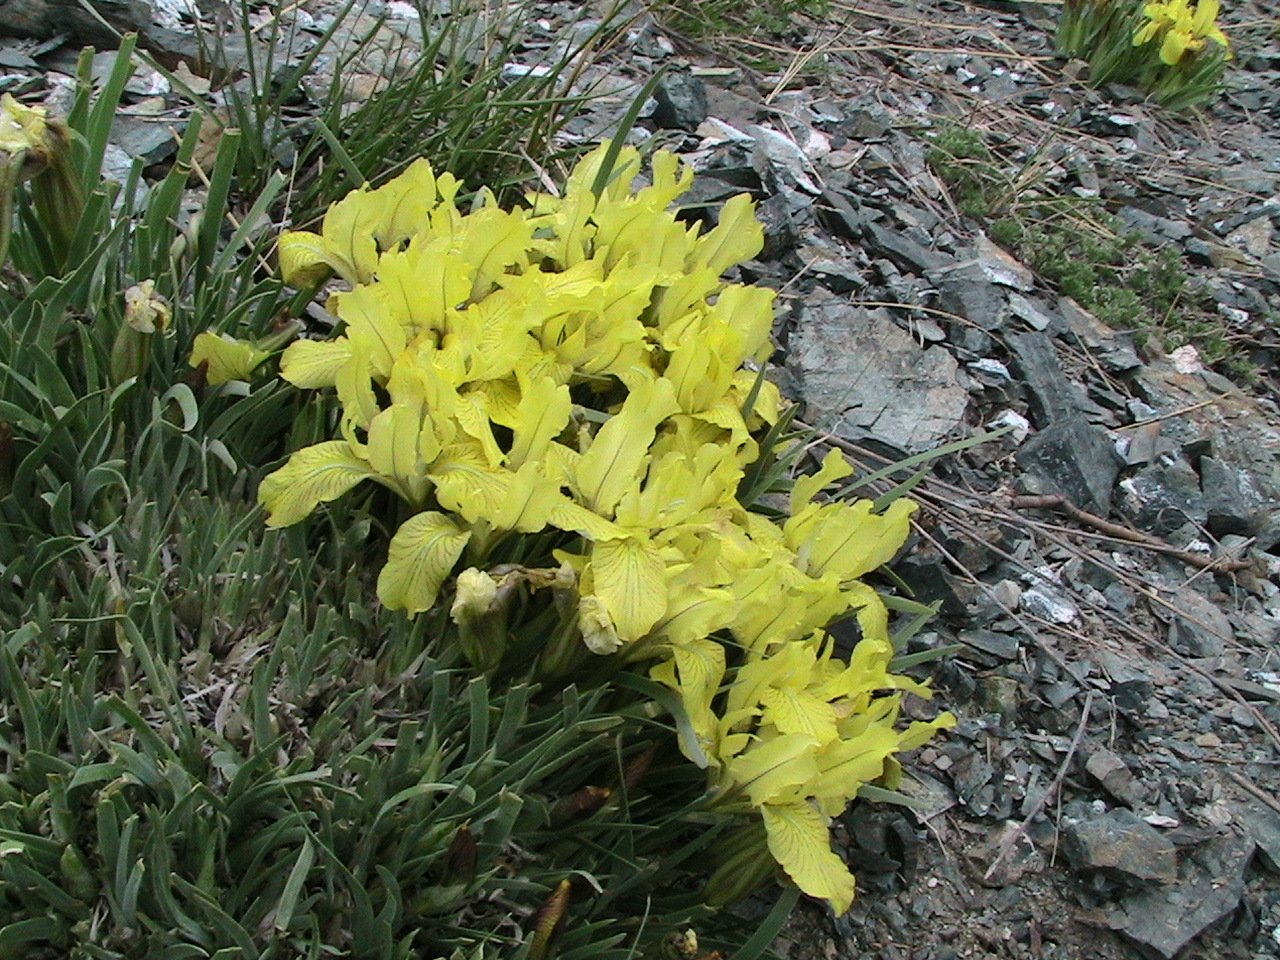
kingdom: Plantae
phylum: Tracheophyta
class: Liliopsida
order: Asparagales
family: Iridaceae
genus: Iris
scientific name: Iris potaninii
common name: Curl-sheath iris
